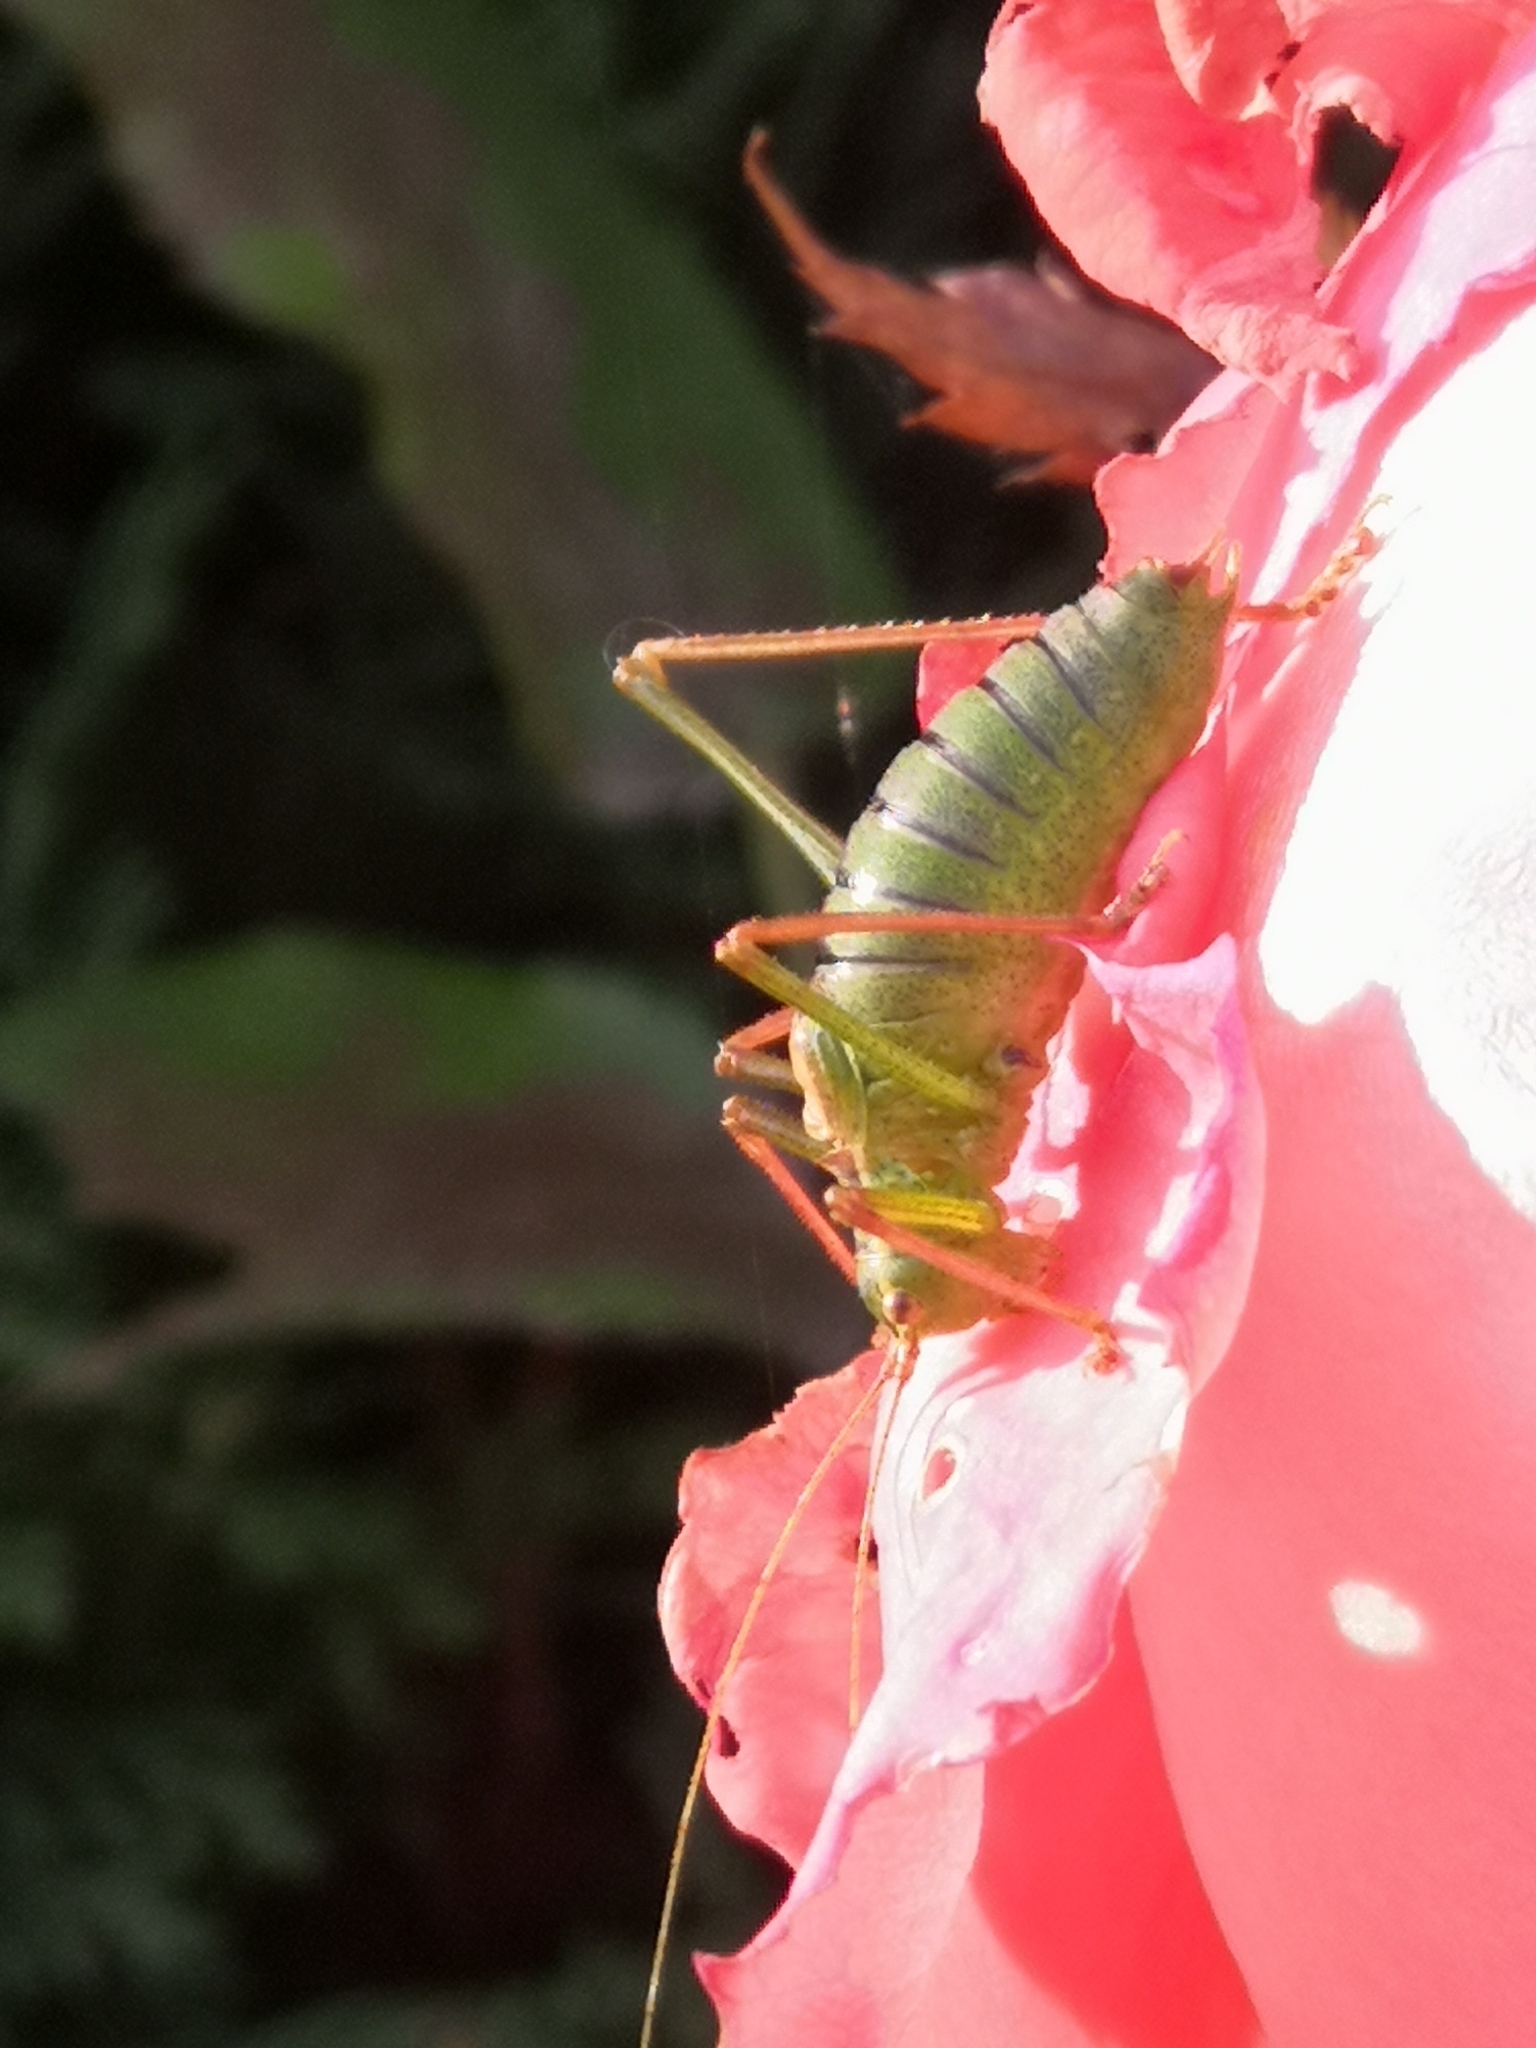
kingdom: Animalia
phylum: Arthropoda
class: Insecta
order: Orthoptera
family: Tettigoniidae
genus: Leptophyes
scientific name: Leptophyes punctatissima
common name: Speckled bush-cricket
